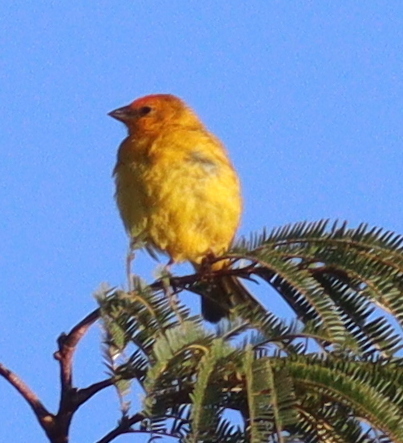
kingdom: Animalia
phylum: Chordata
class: Aves
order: Passeriformes
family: Thraupidae
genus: Sicalis
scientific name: Sicalis flaveola
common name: Saffron finch
